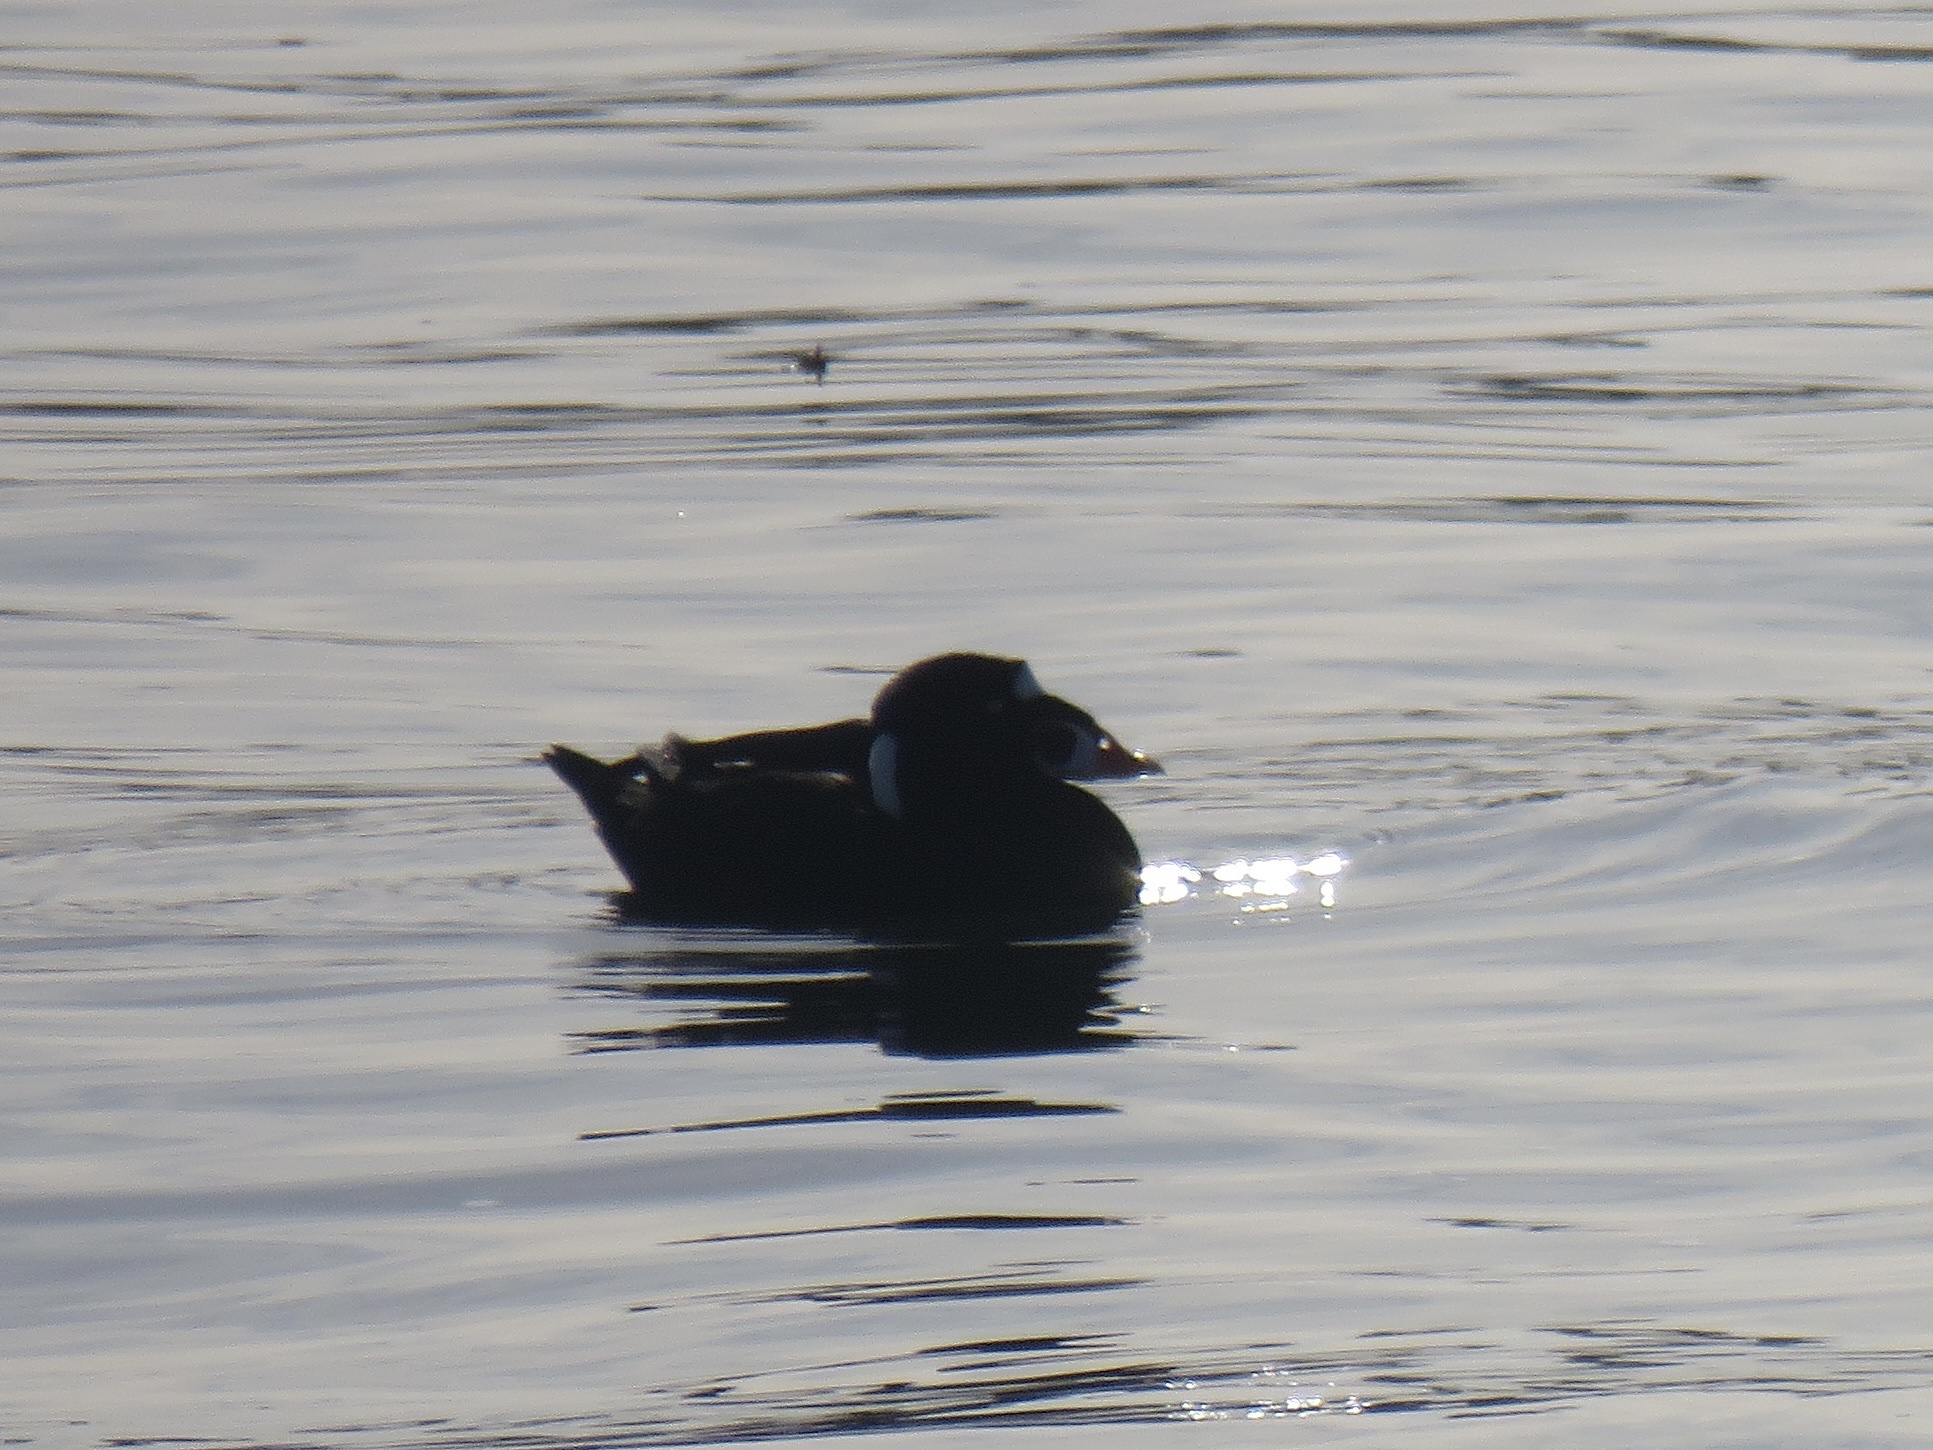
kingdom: Animalia
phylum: Chordata
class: Aves
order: Anseriformes
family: Anatidae
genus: Melanitta
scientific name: Melanitta perspicillata
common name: Surf scoter
